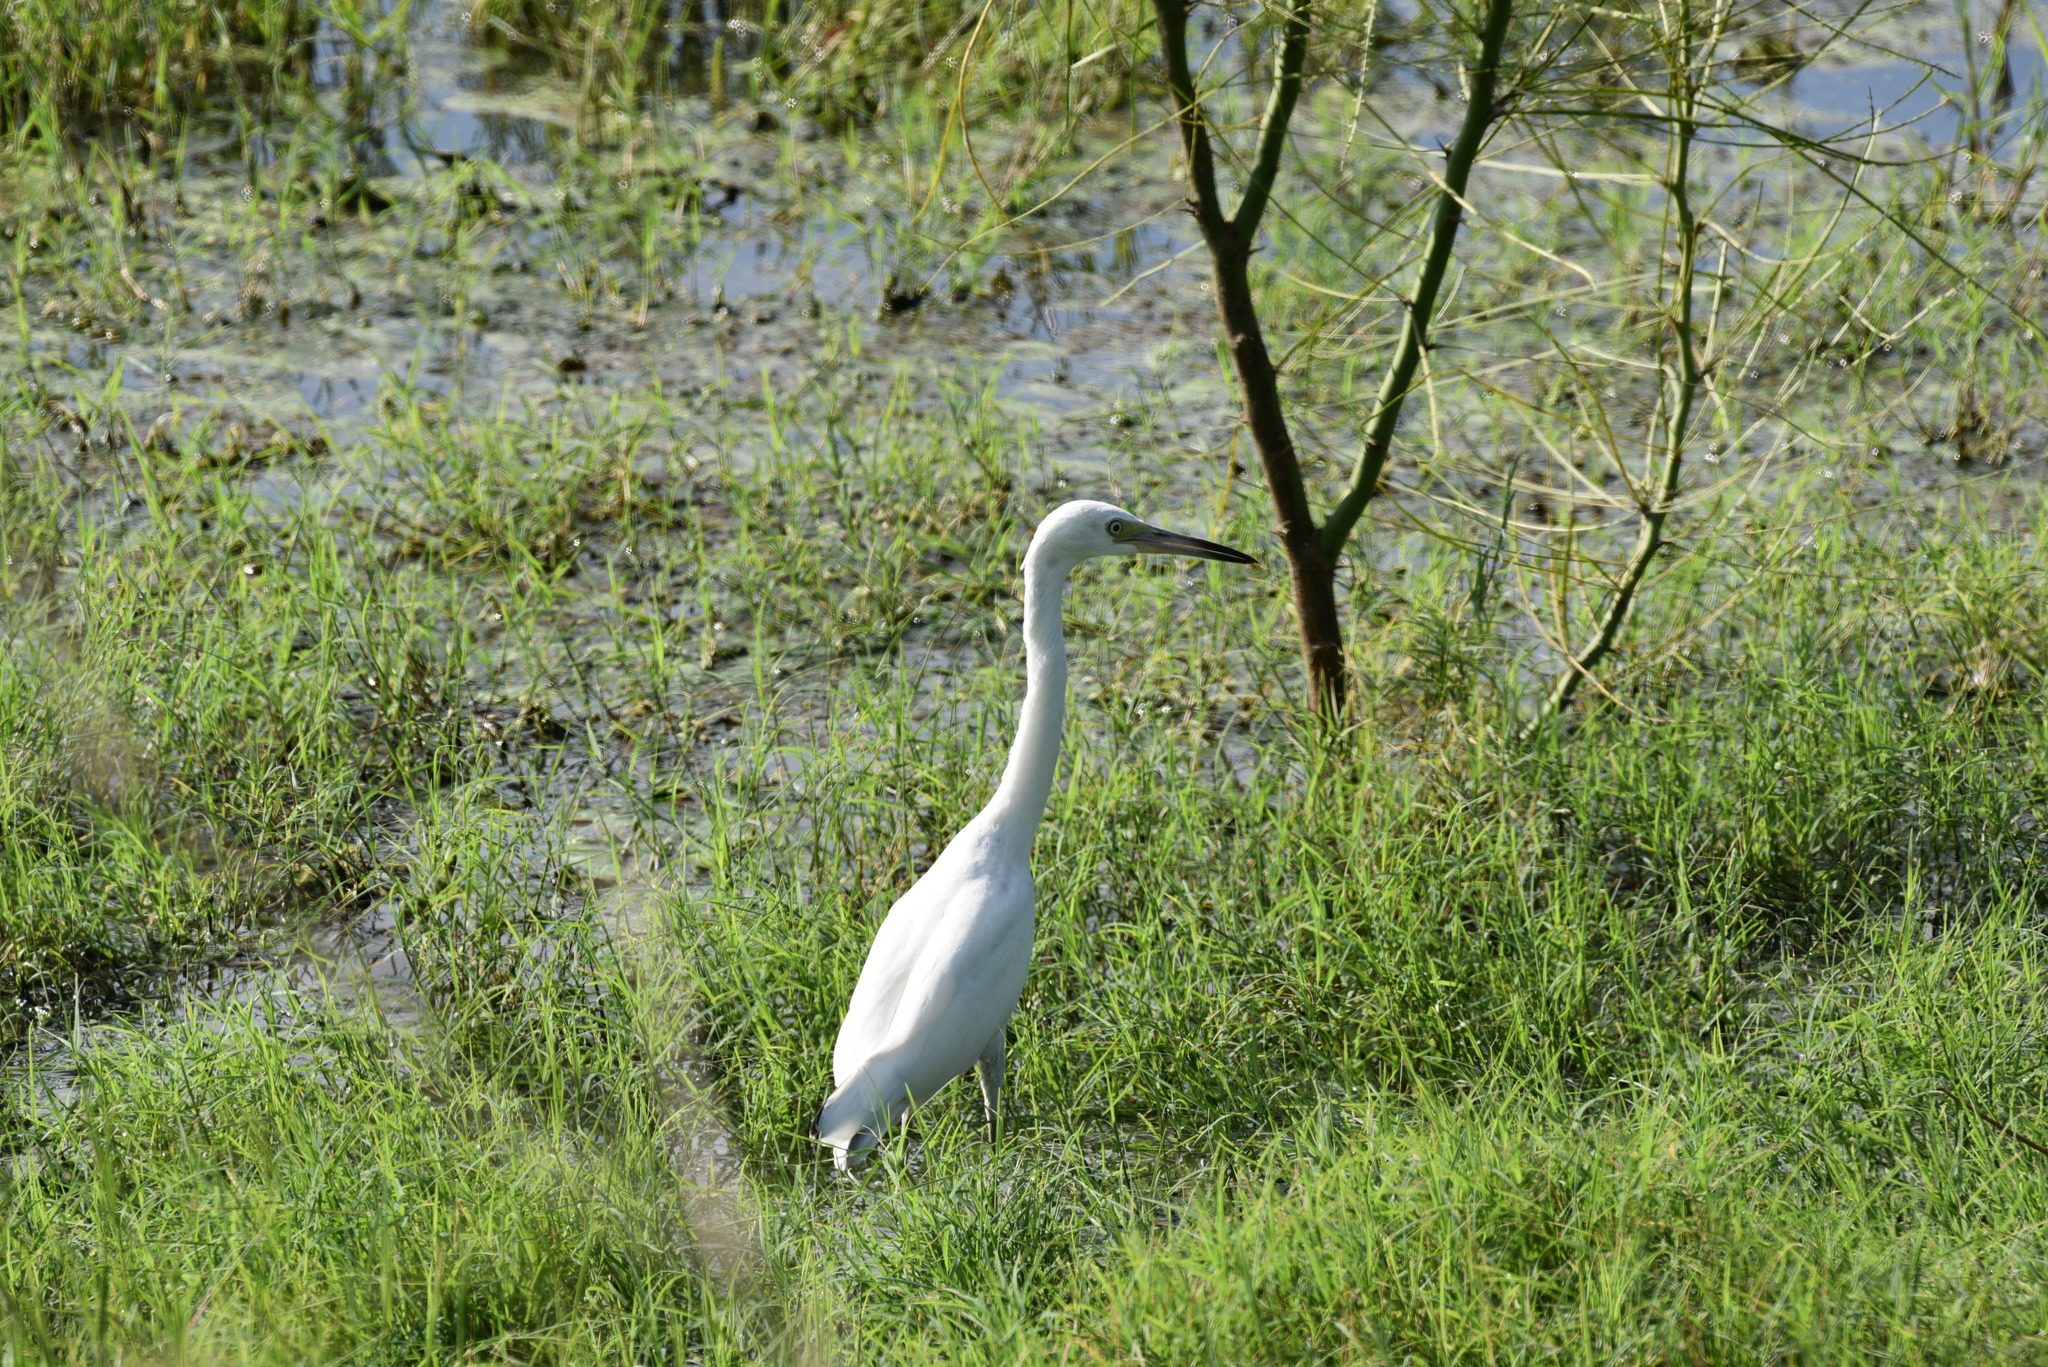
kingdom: Animalia
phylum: Chordata
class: Aves
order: Pelecaniformes
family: Ardeidae
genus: Egretta
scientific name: Egretta caerulea
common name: Little blue heron
